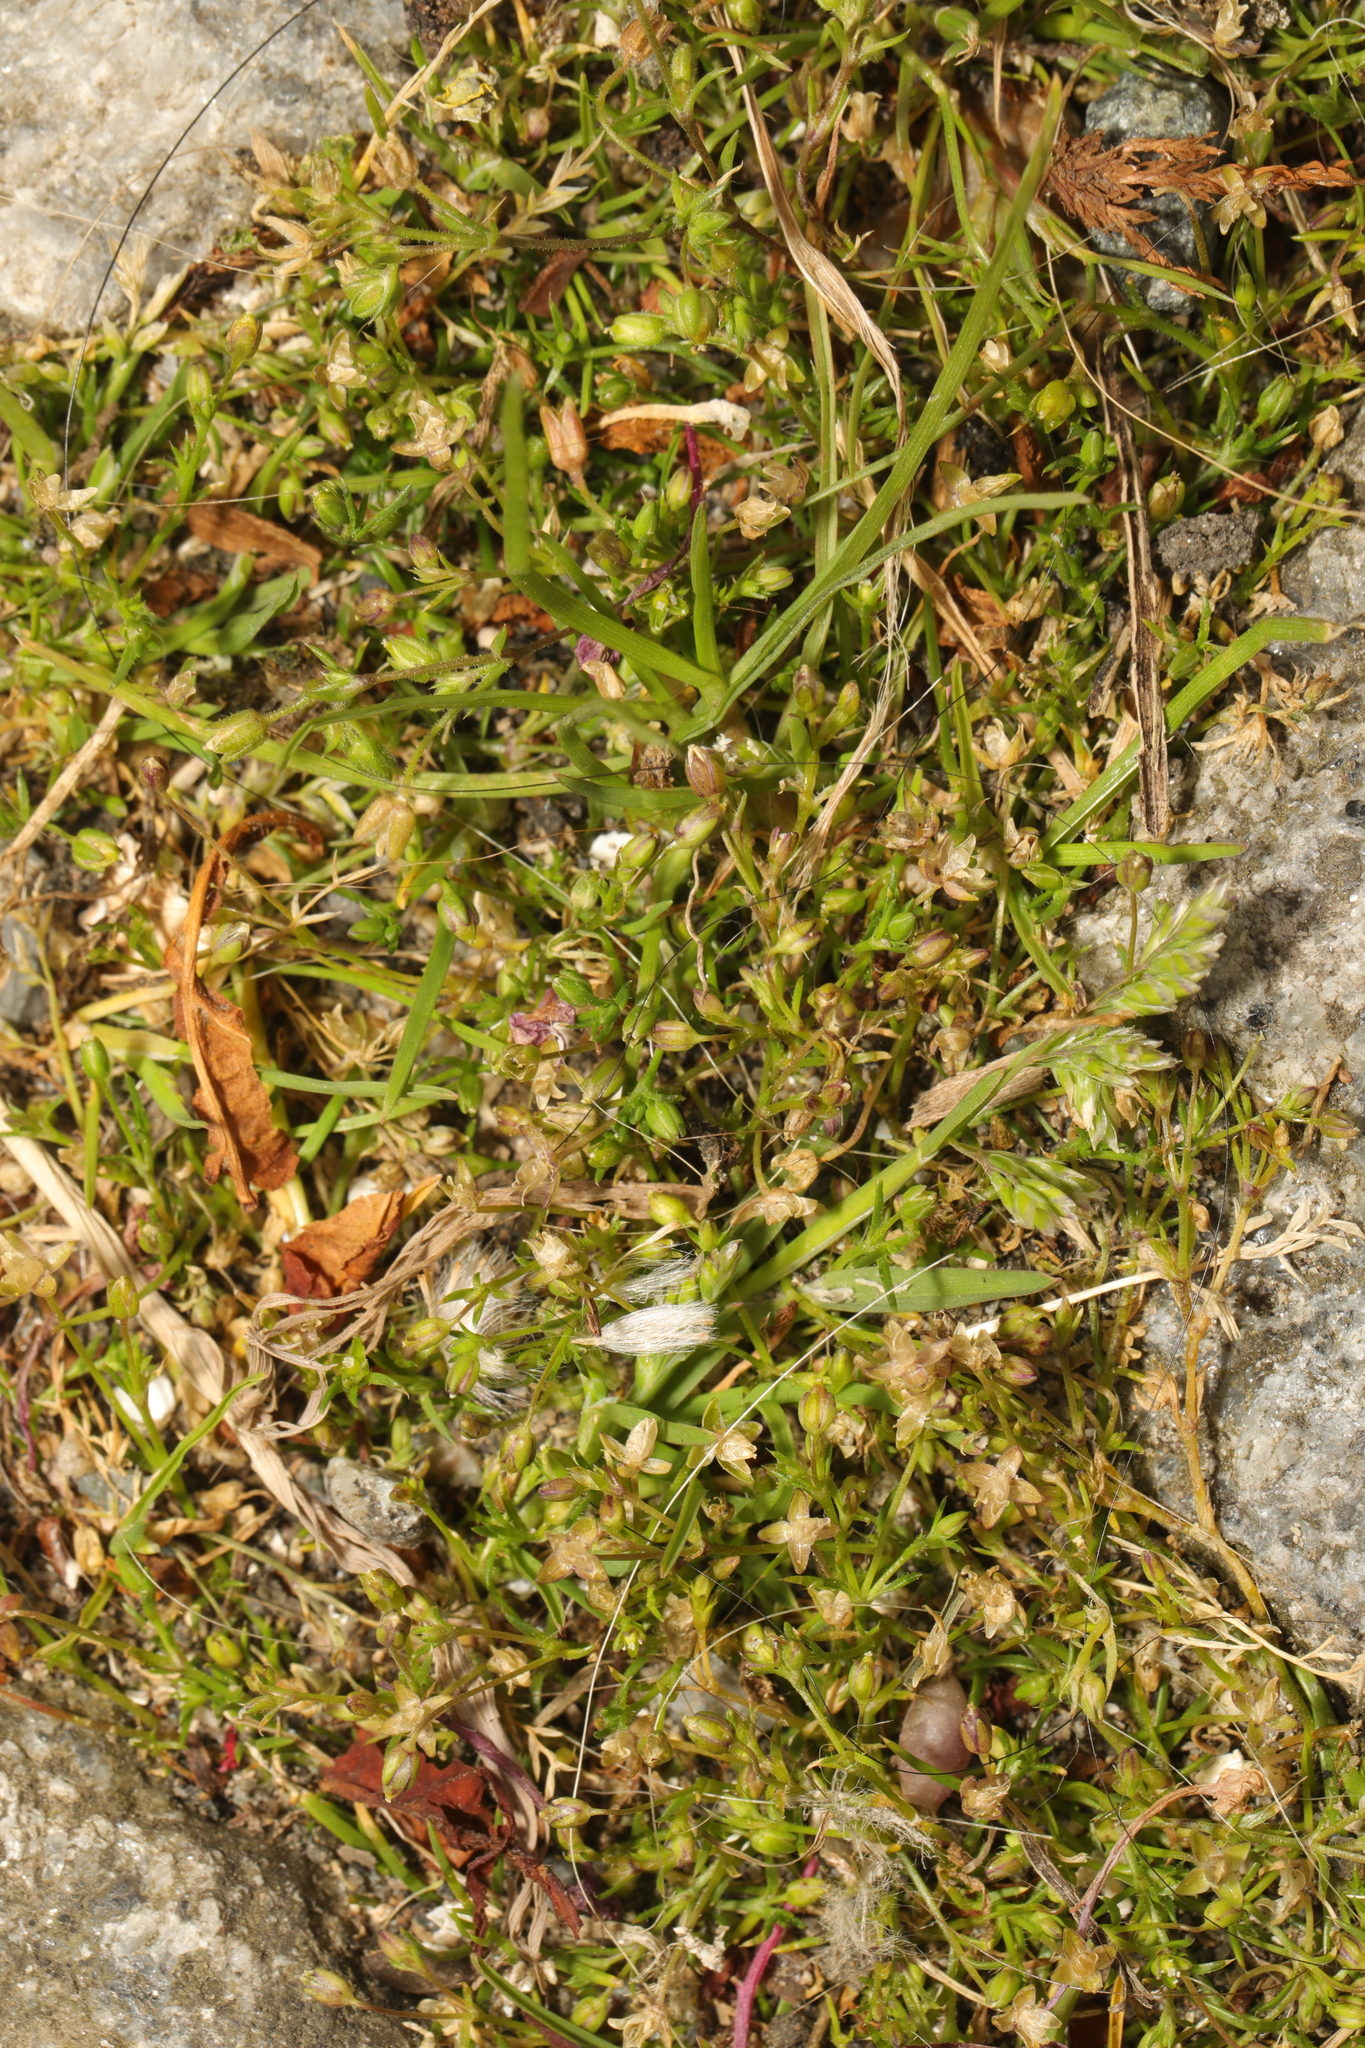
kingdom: Plantae
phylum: Tracheophyta
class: Magnoliopsida
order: Caryophyllales
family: Caryophyllaceae
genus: Sagina
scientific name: Sagina procumbens
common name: Procumbent pearlwort
